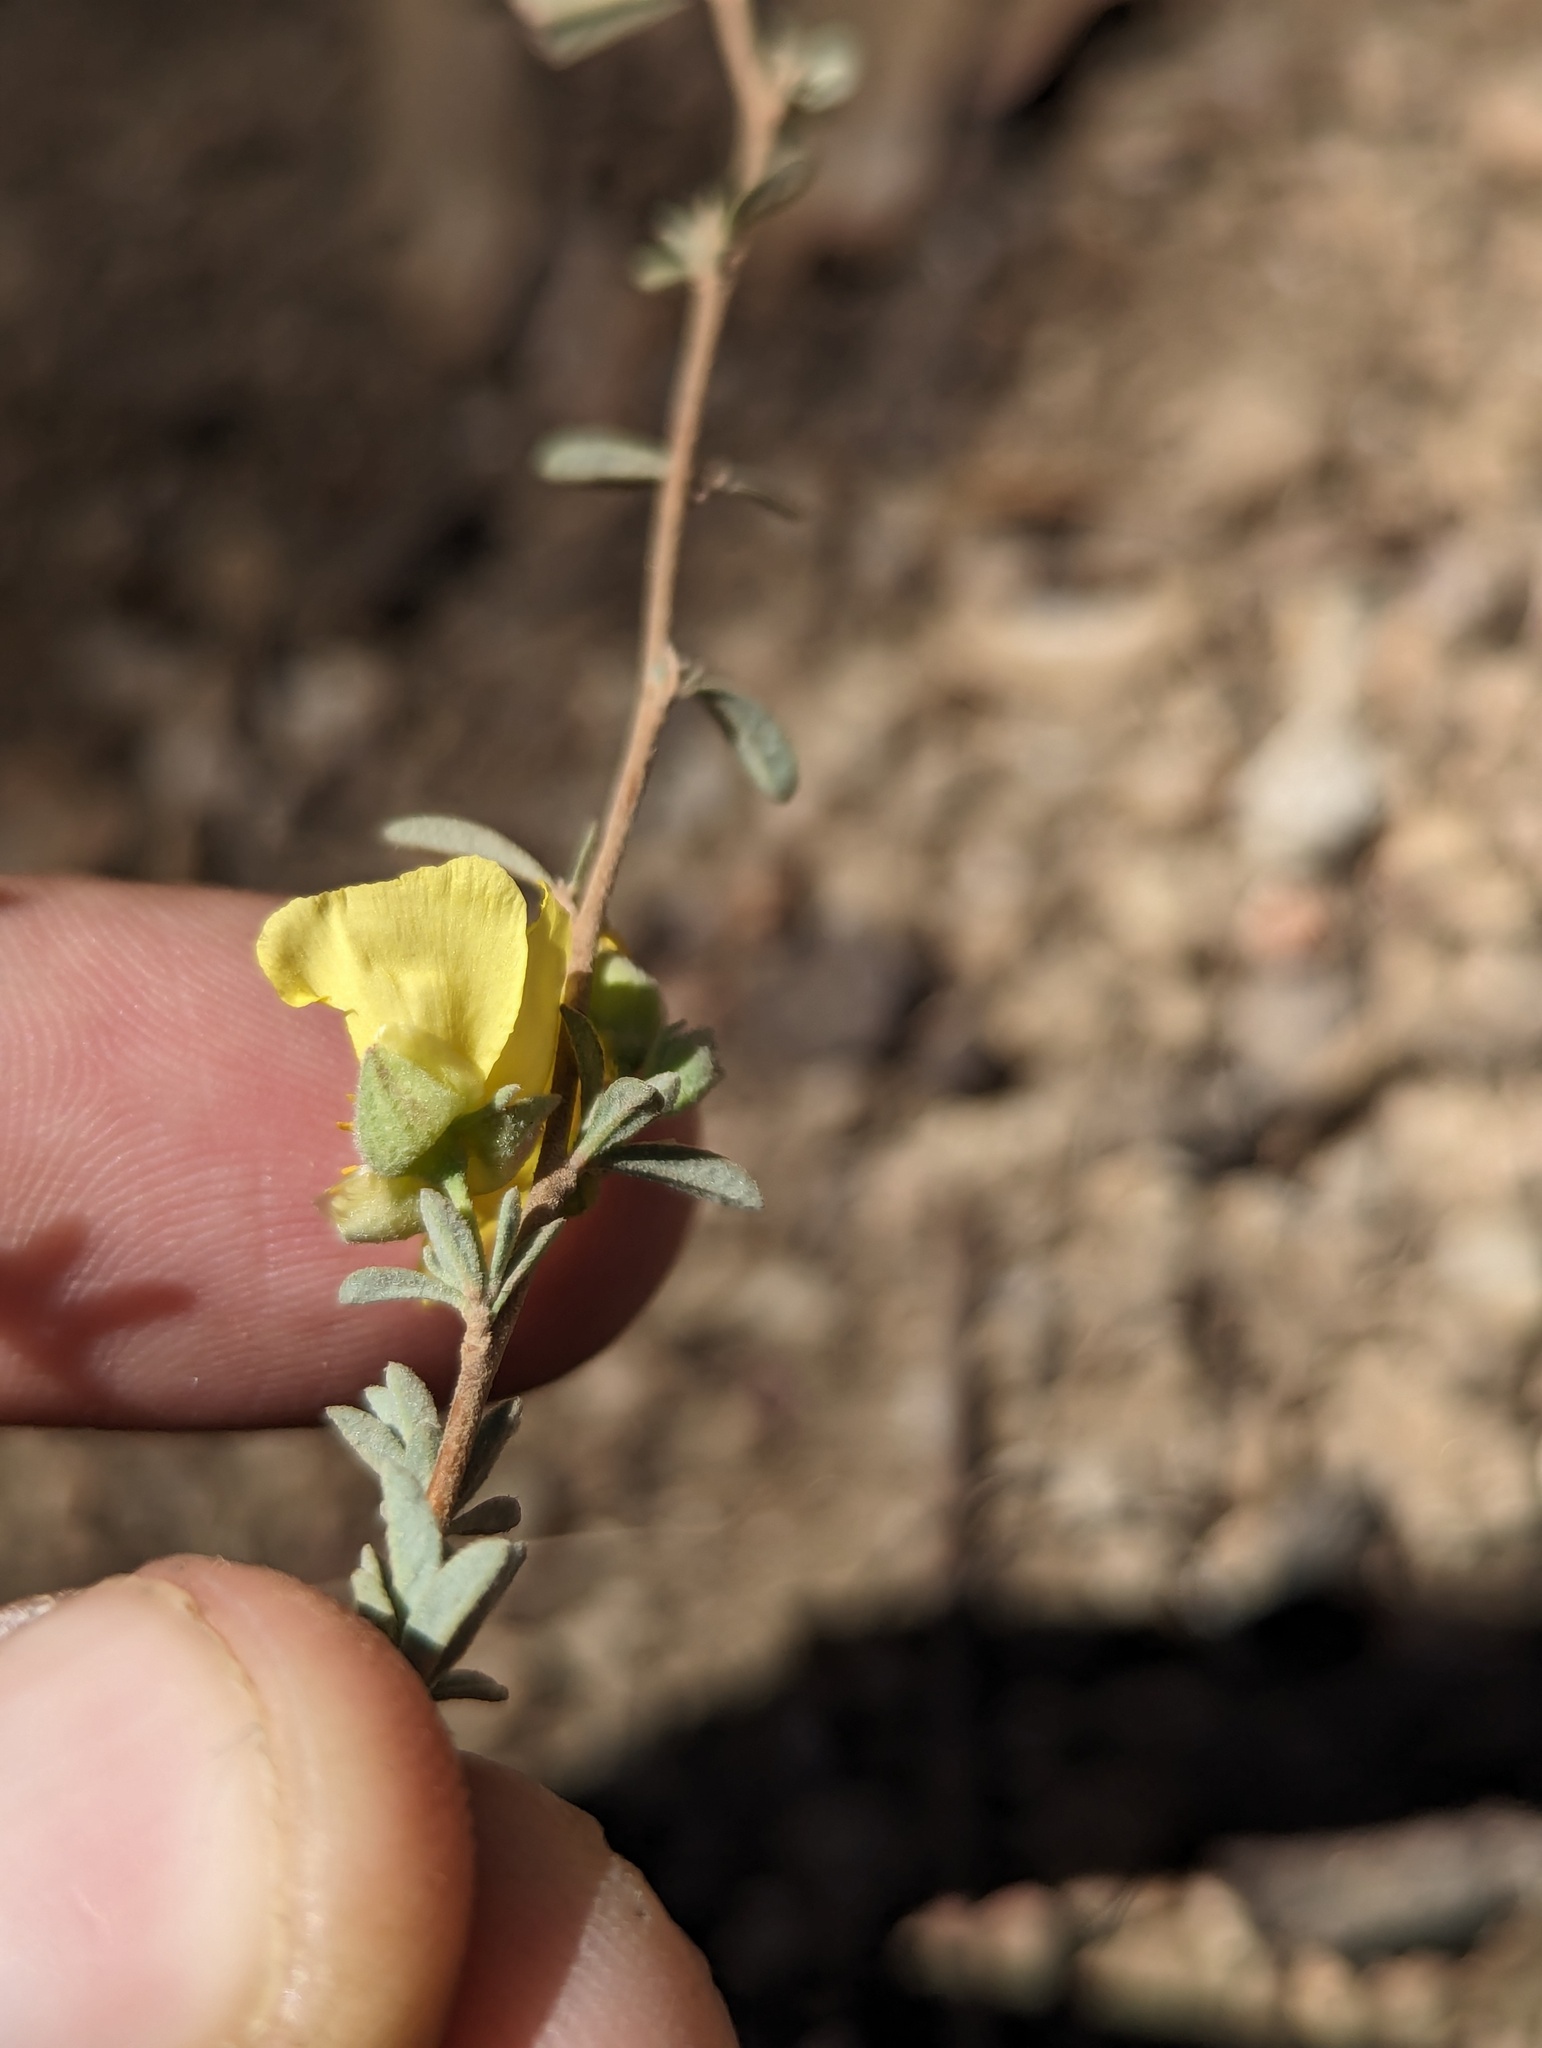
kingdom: Plantae
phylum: Tracheophyta
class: Magnoliopsida
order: Malvales
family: Cistaceae
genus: Crocanthemum
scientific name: Crocanthemum glomeratum
